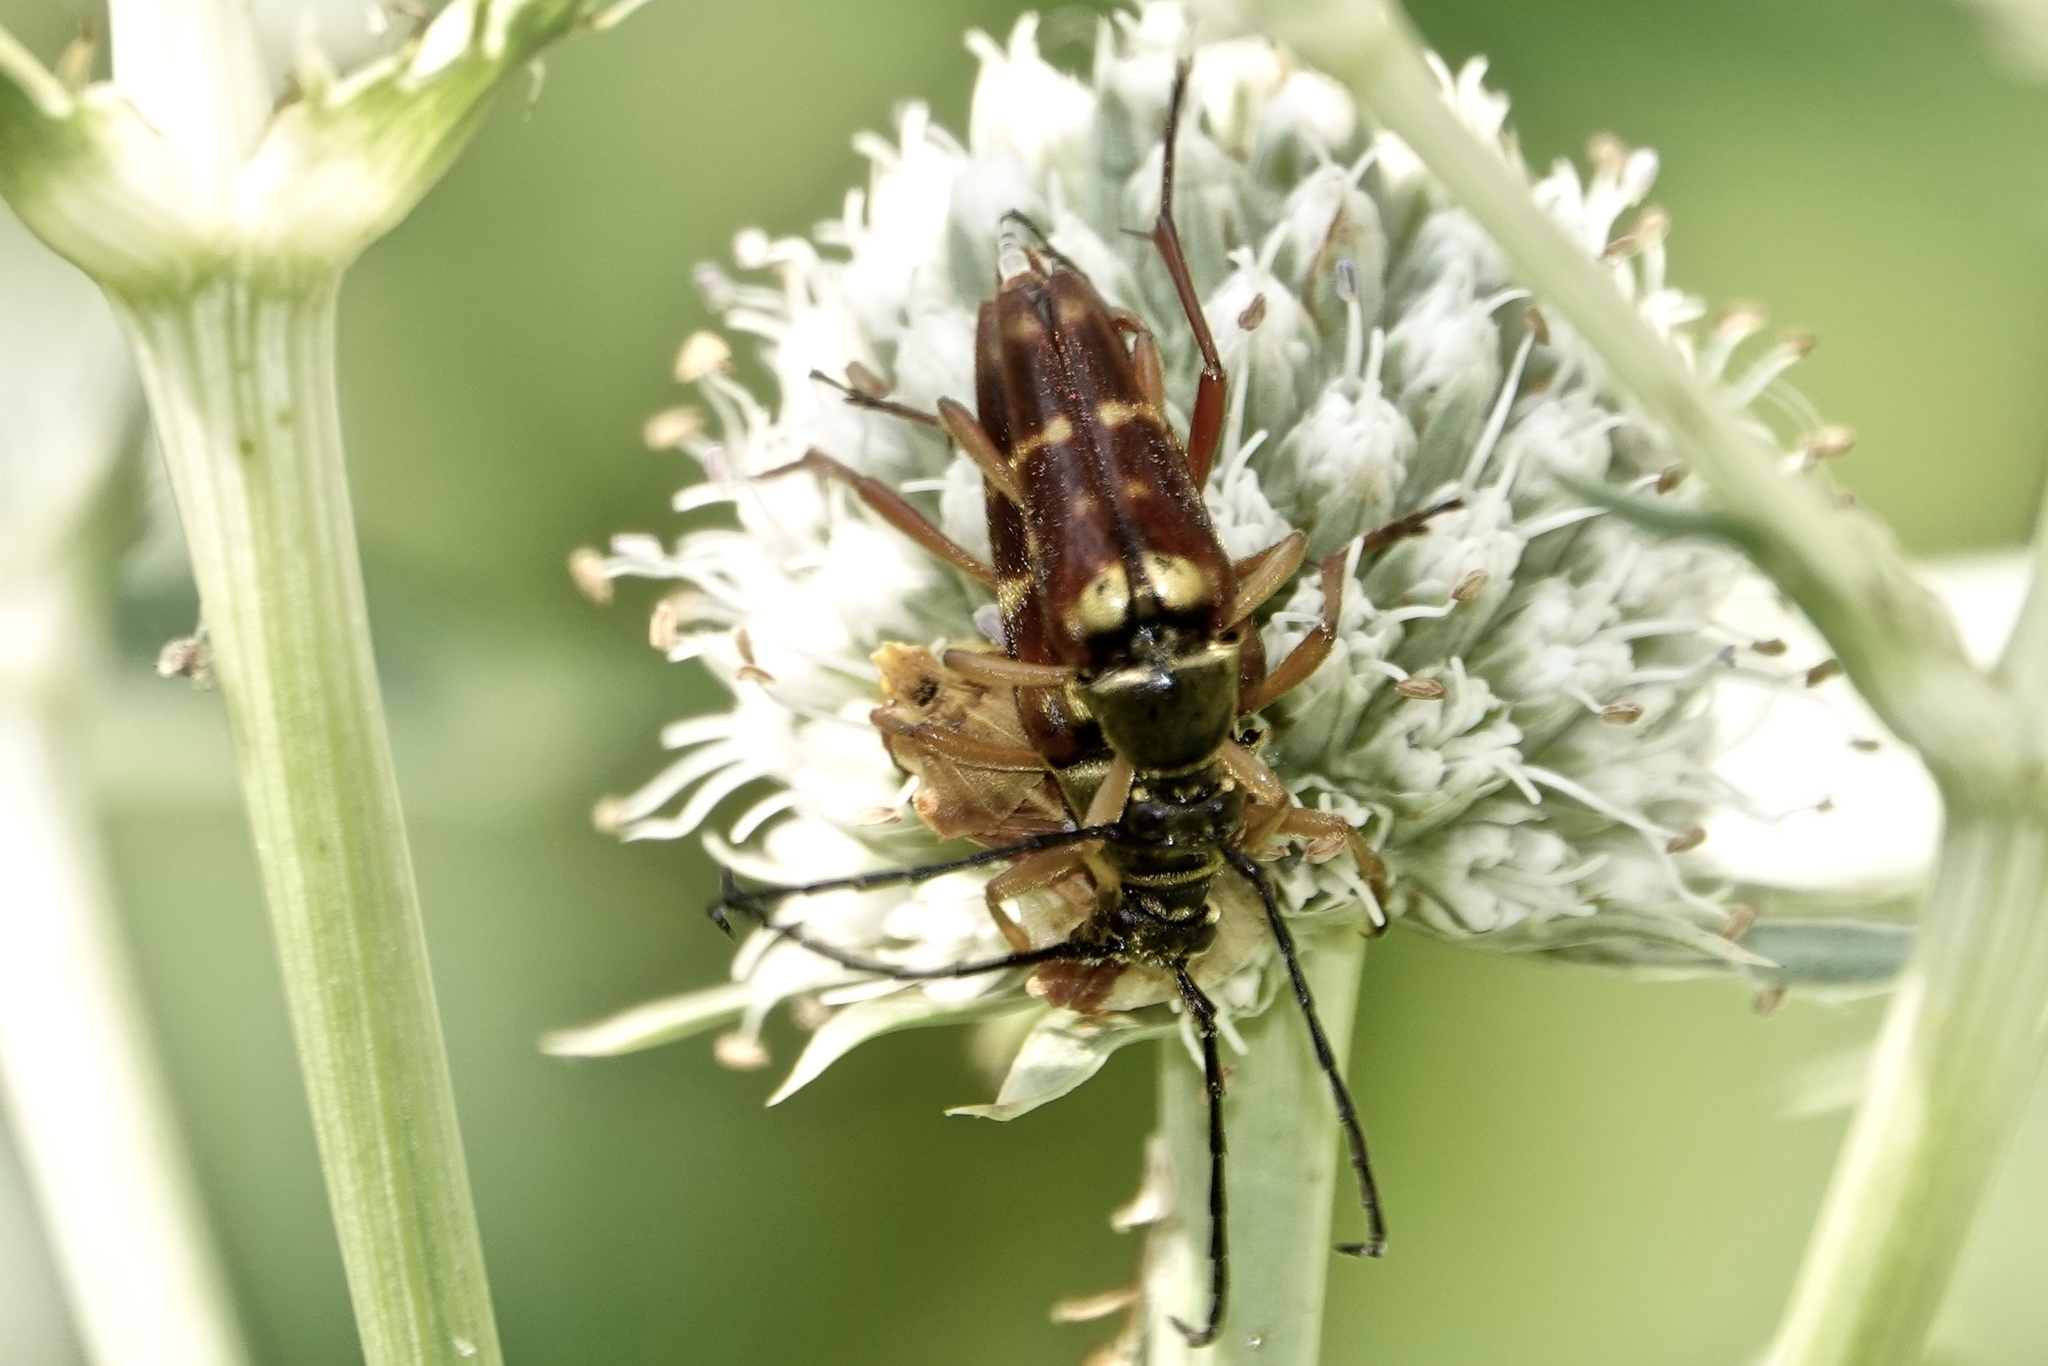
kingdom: Animalia
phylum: Arthropoda
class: Insecta
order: Coleoptera
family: Cerambycidae
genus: Typocerus
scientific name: Typocerus velutinus
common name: Banded longhorn beetle
